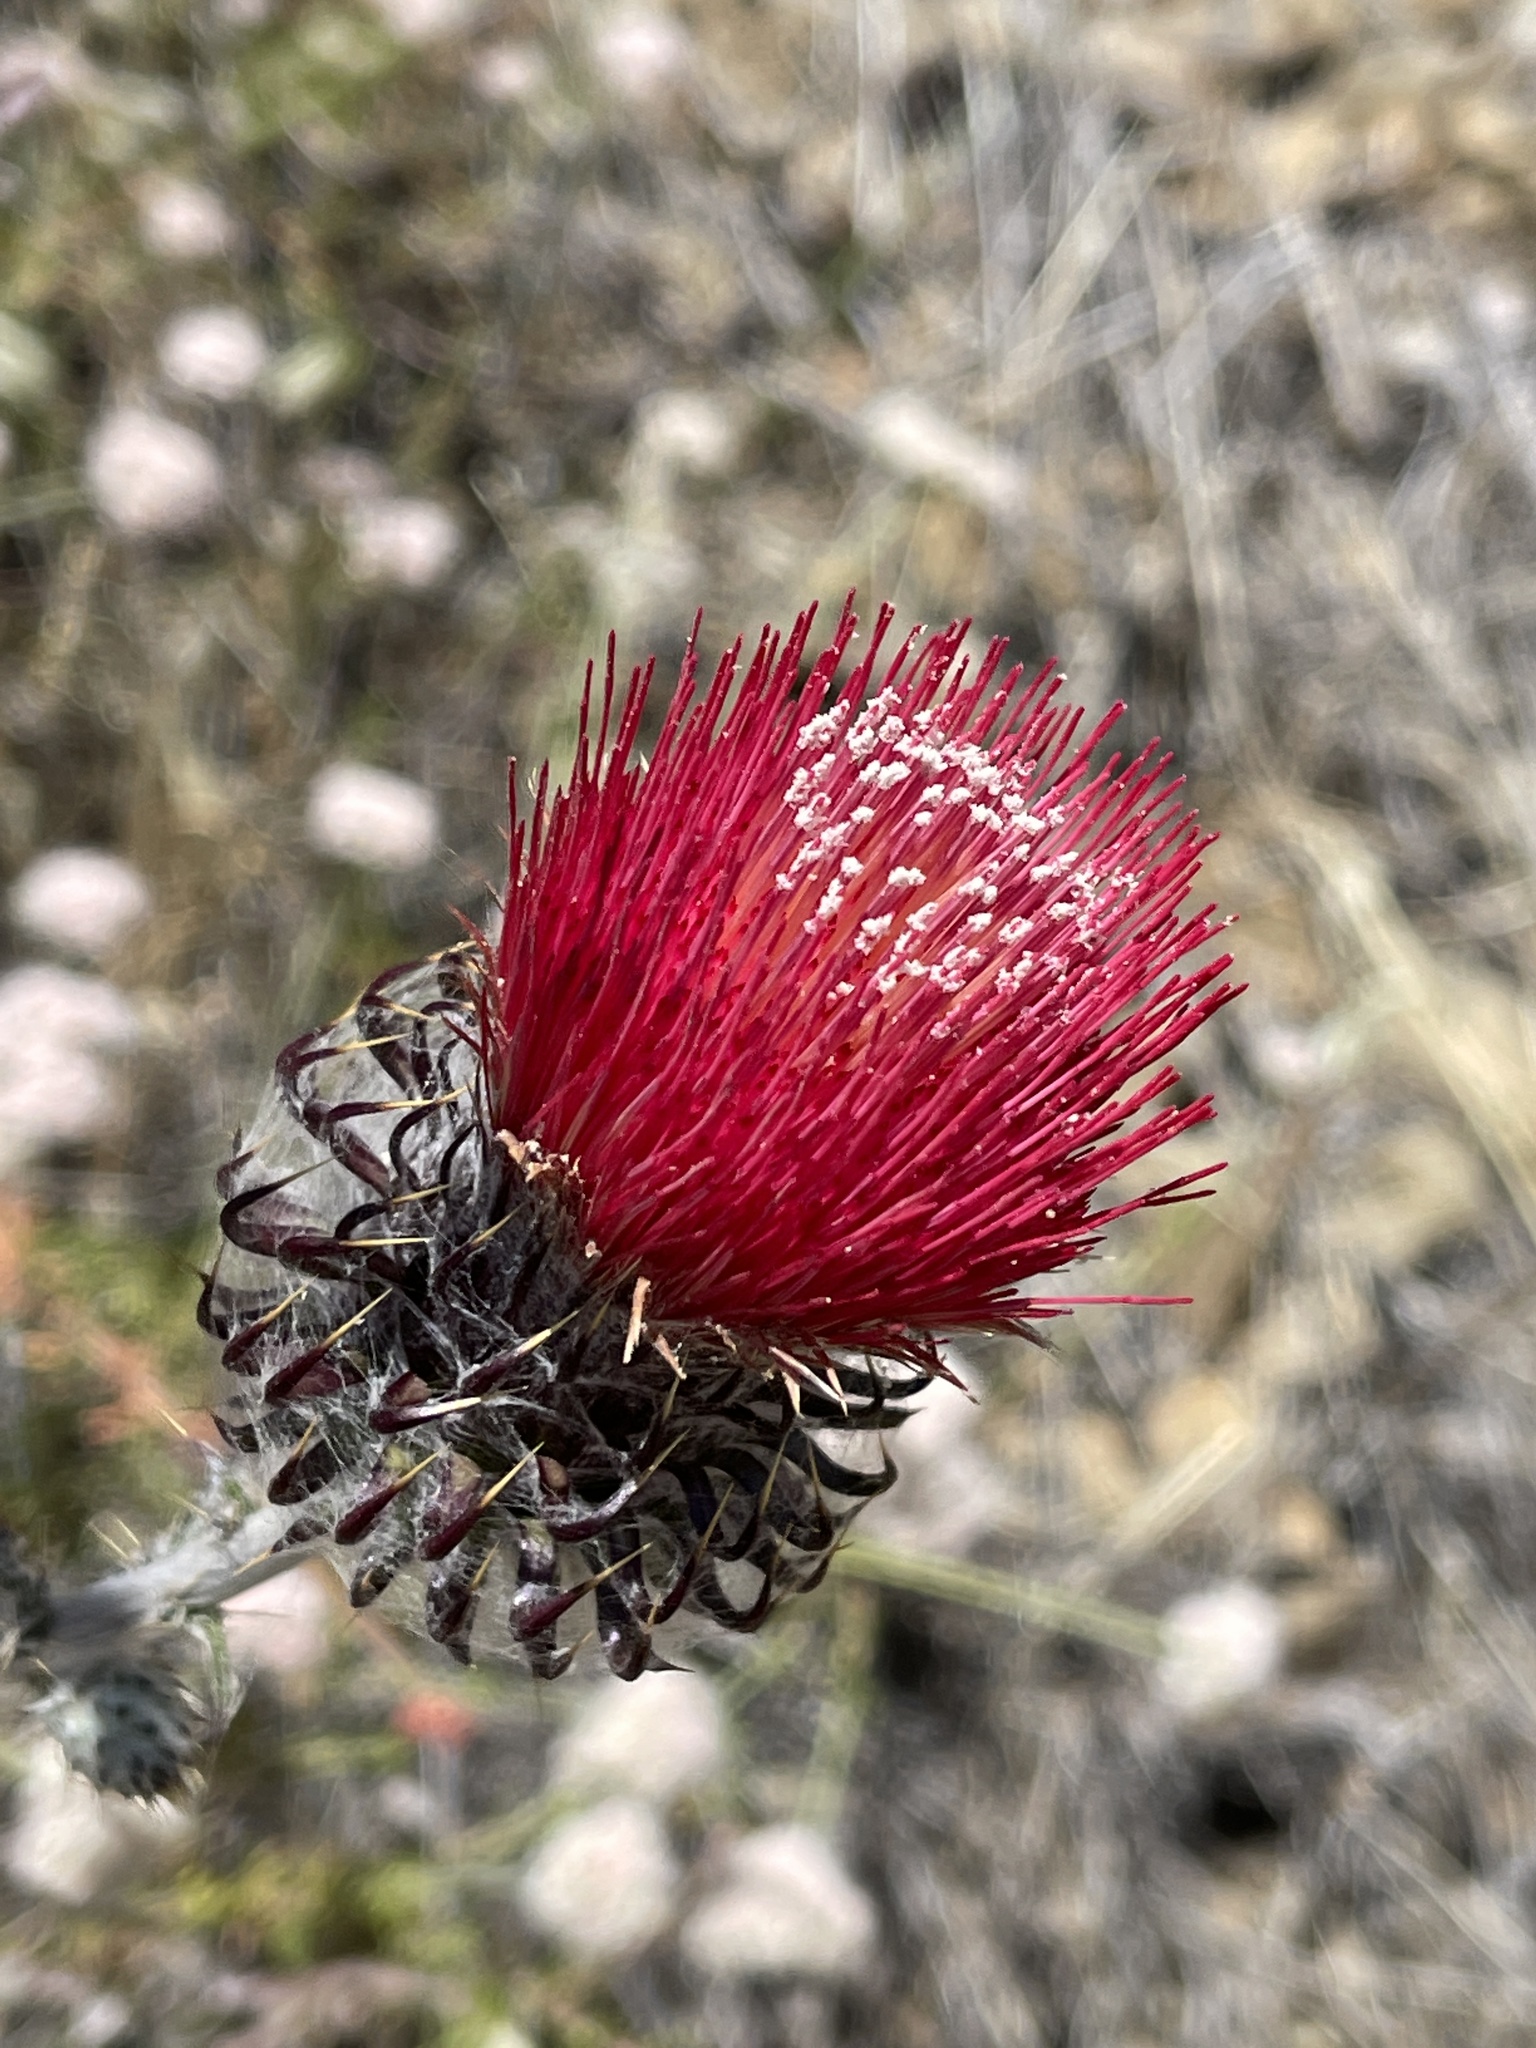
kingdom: Plantae
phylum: Tracheophyta
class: Magnoliopsida
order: Asterales
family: Asteraceae
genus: Cirsium
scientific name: Cirsium occidentale
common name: Western thistle
